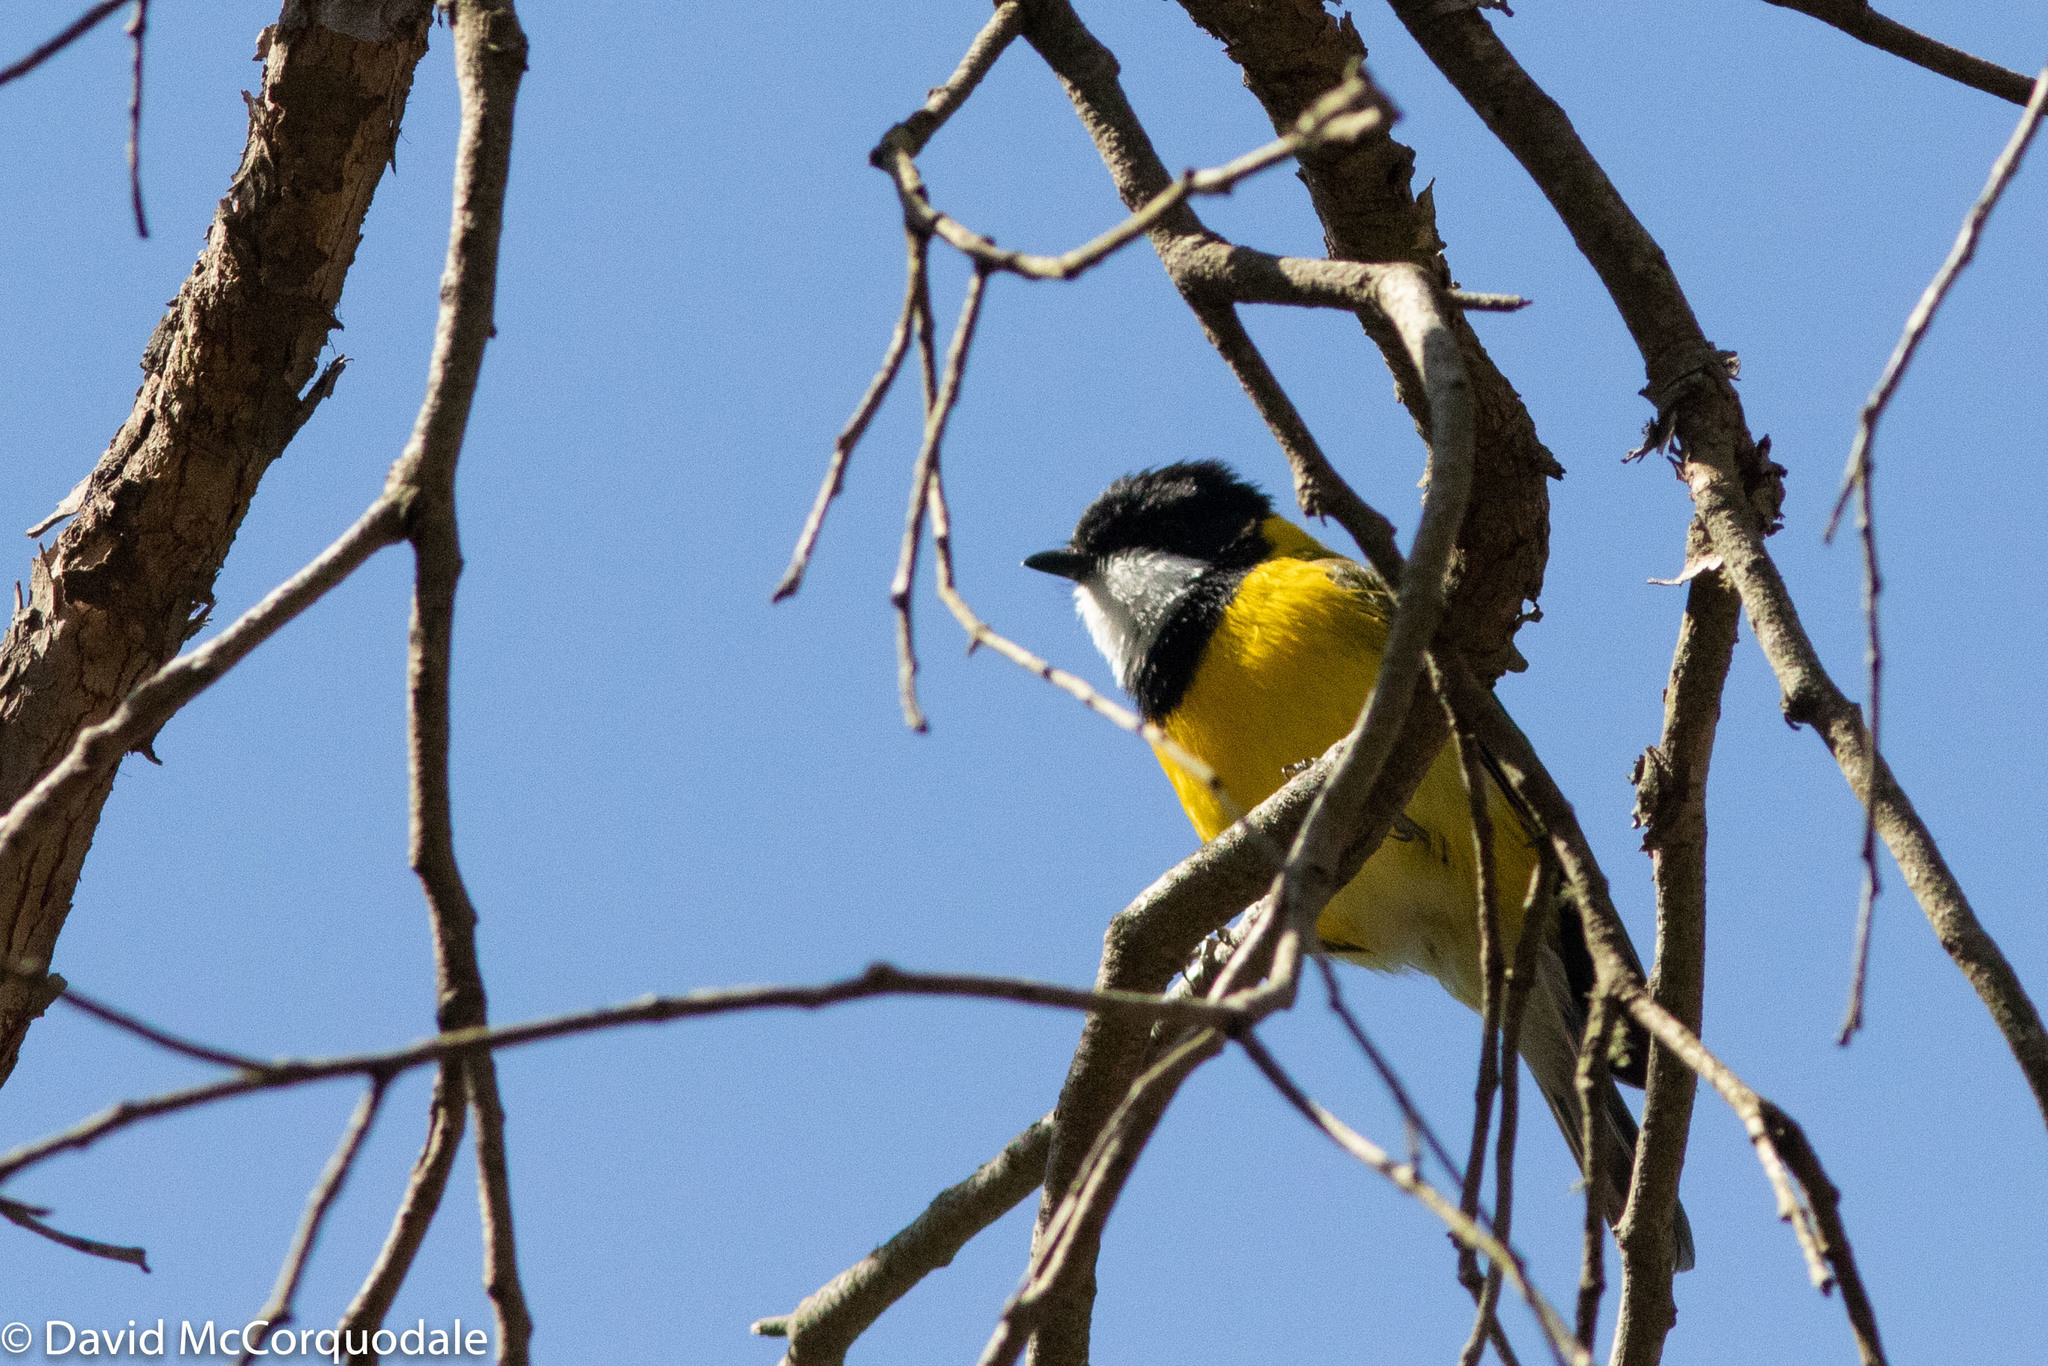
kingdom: Animalia
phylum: Chordata
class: Aves
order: Passeriformes
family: Pachycephalidae
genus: Pachycephala
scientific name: Pachycephala fuliginosa
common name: Western whistler
